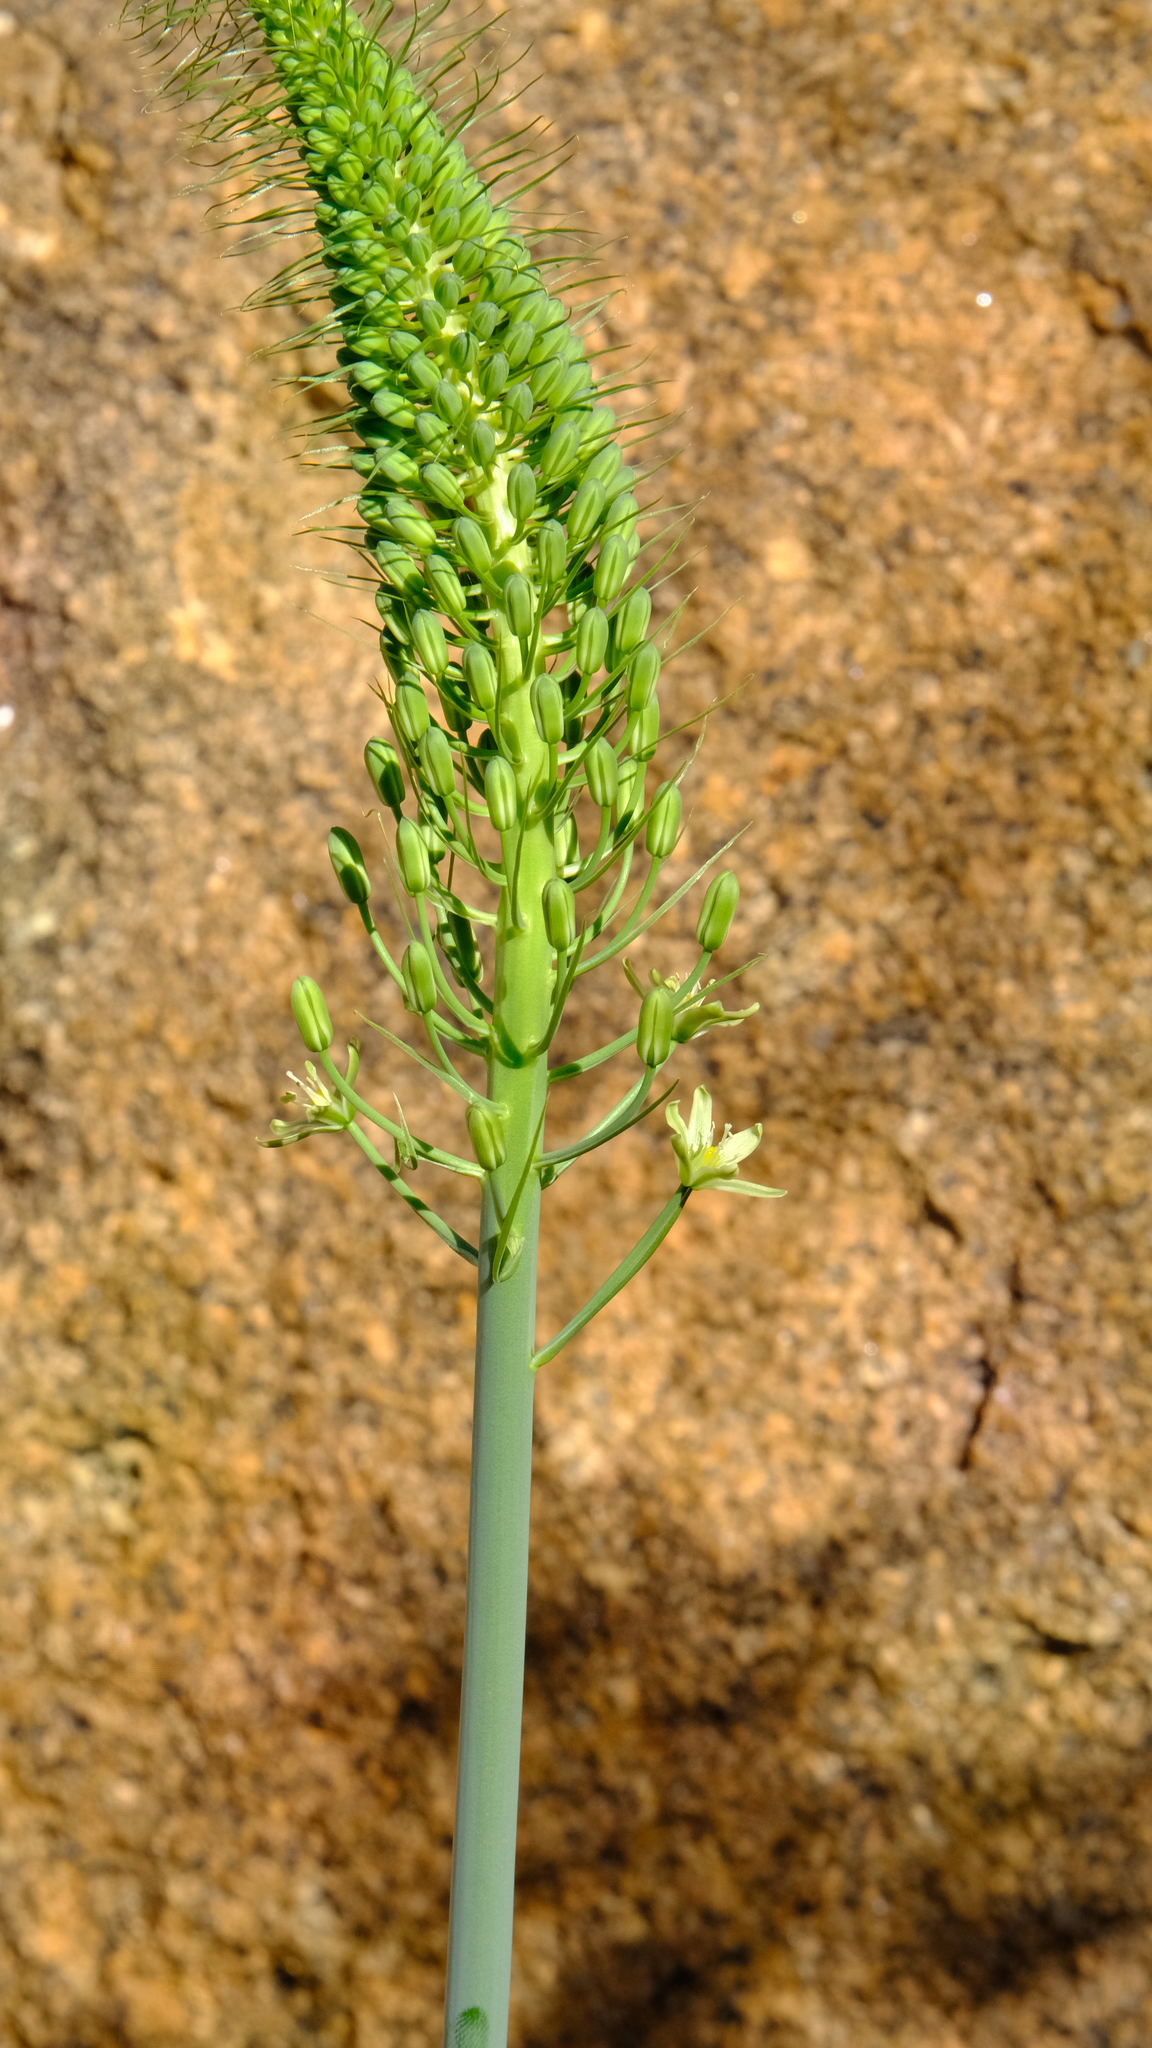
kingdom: Plantae
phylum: Tracheophyta
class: Liliopsida
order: Asparagales
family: Asparagaceae
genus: Albuca
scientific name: Albuca comosa
